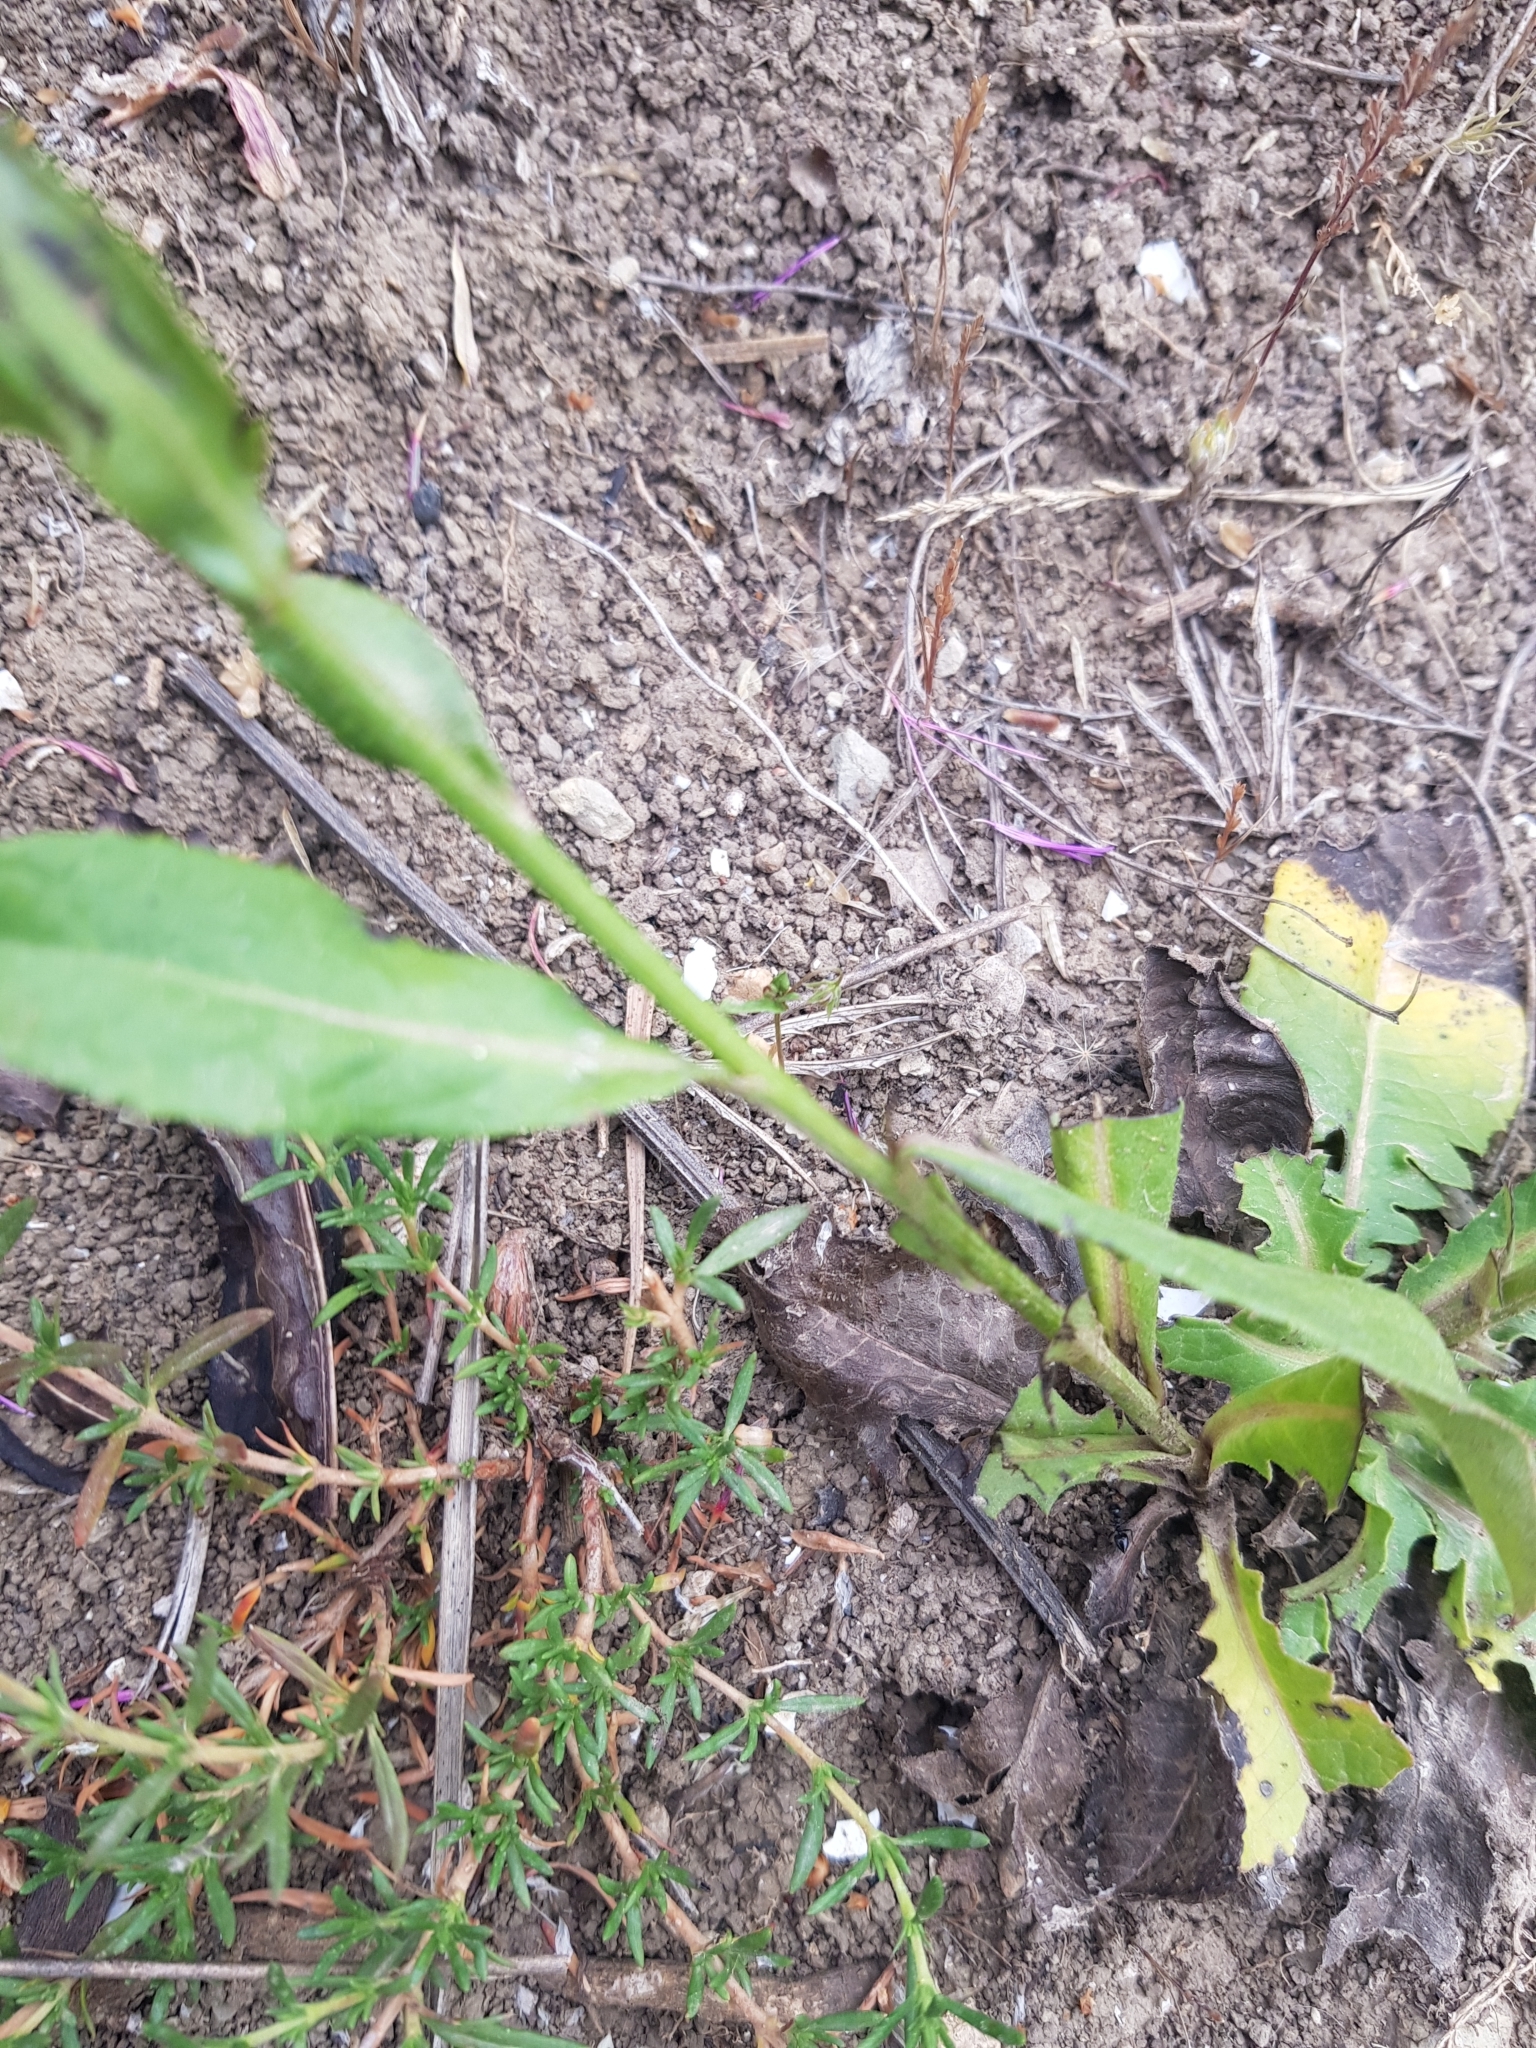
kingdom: Plantae
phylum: Tracheophyta
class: Magnoliopsida
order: Asterales
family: Asteraceae
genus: Klasea
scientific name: Klasea flavescens
